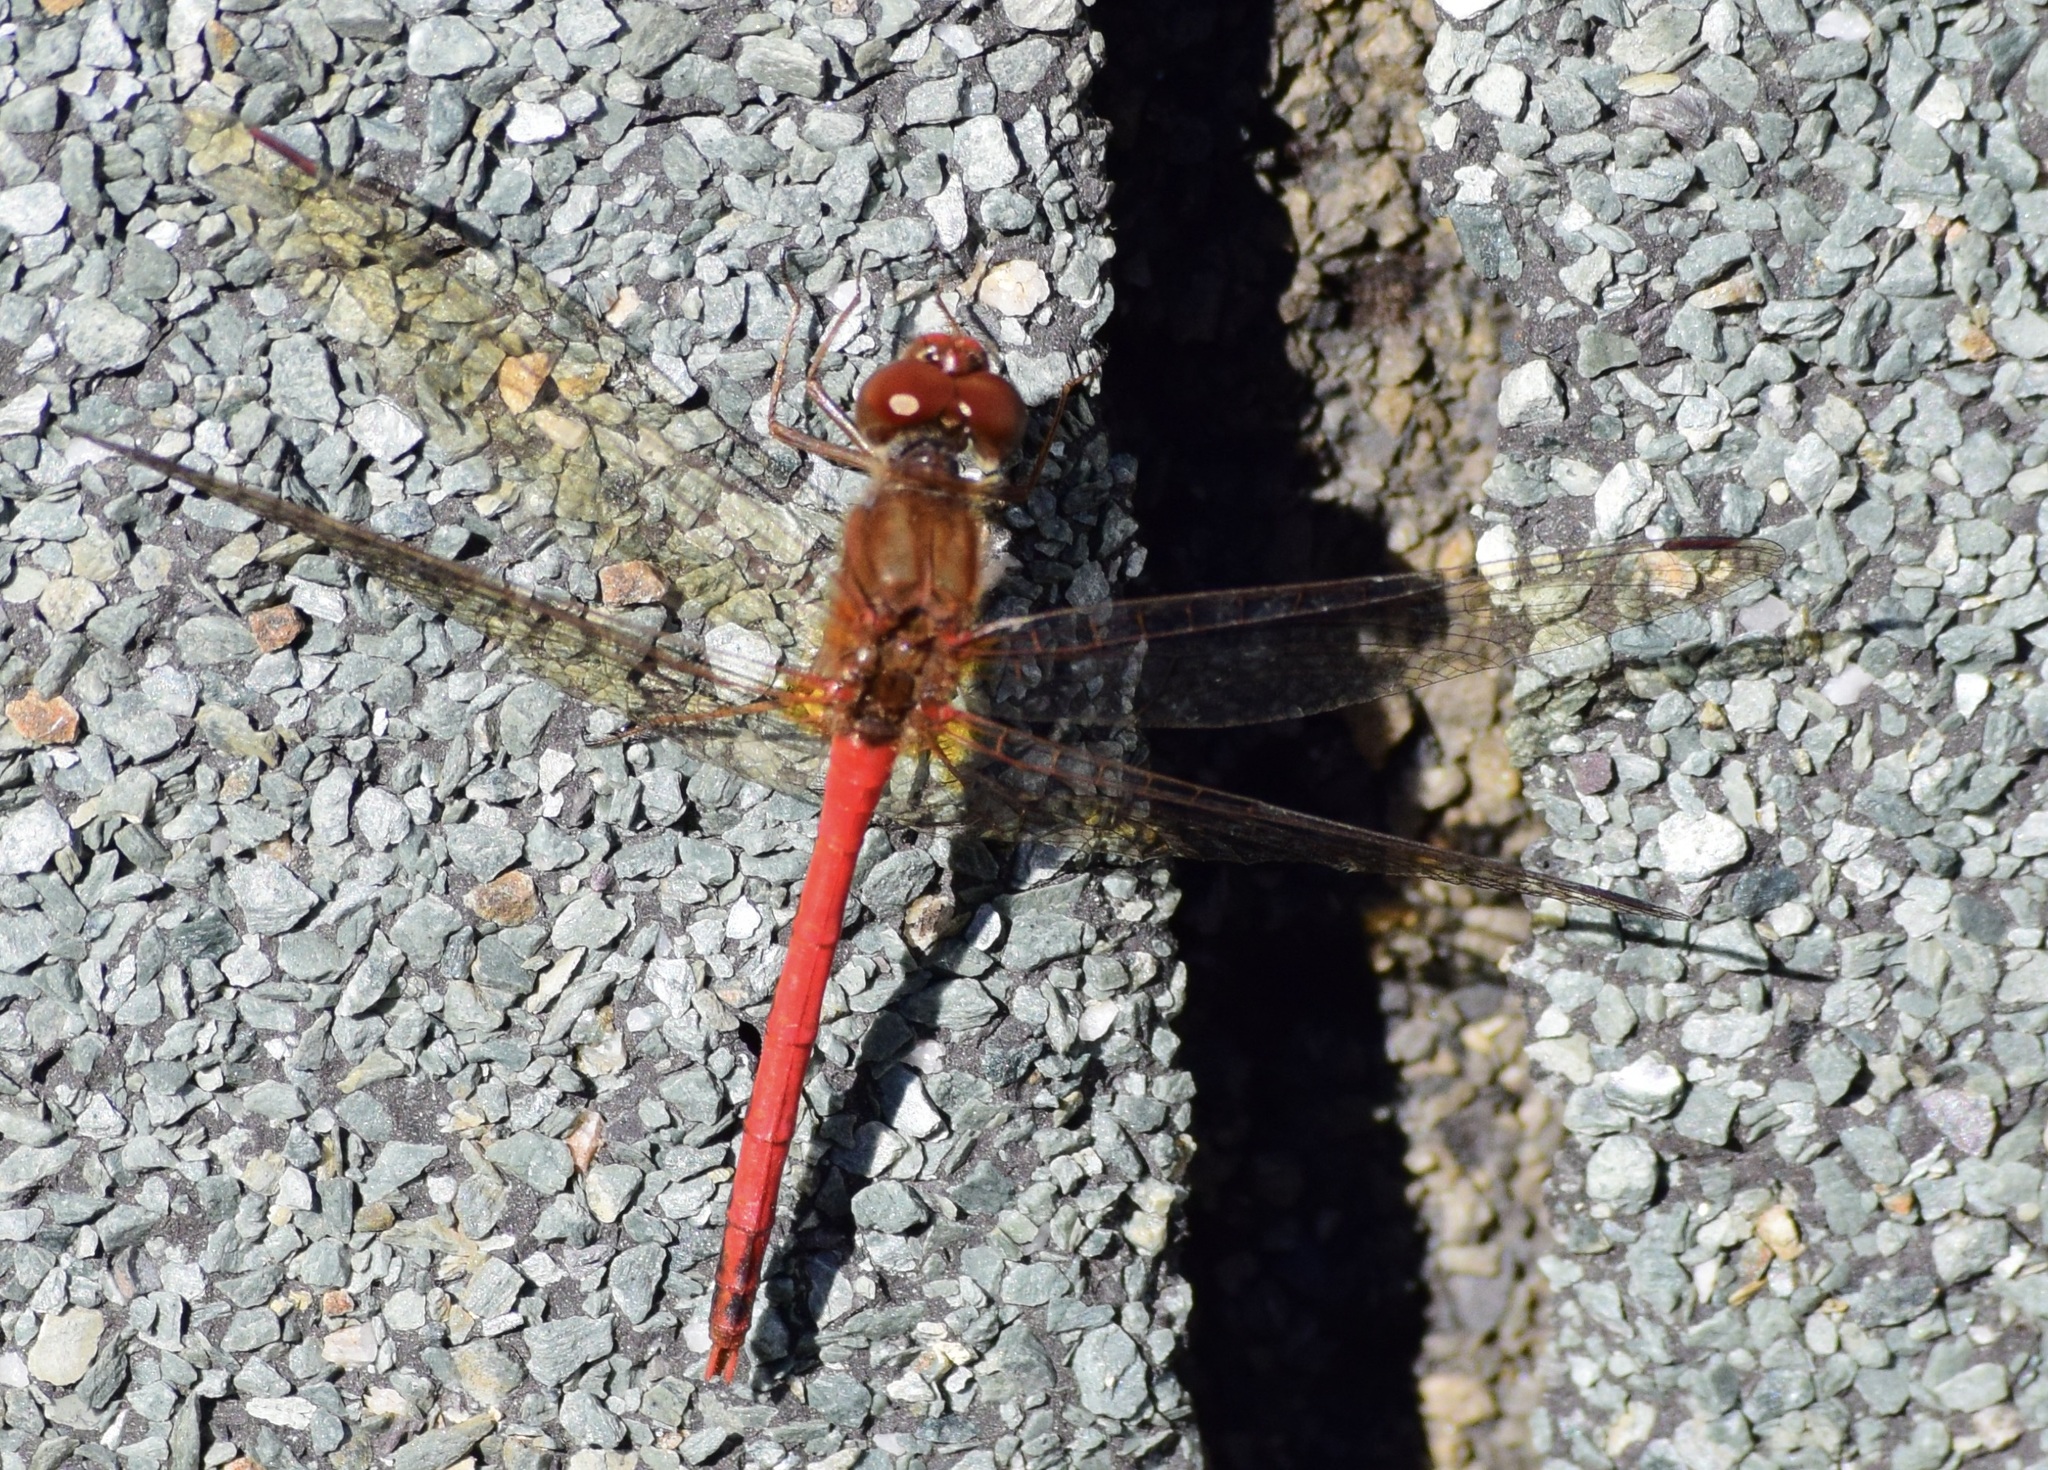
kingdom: Animalia
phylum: Arthropoda
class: Insecta
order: Odonata
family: Libellulidae
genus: Sympetrum
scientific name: Sympetrum vicinum
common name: Autumn meadowhawk
